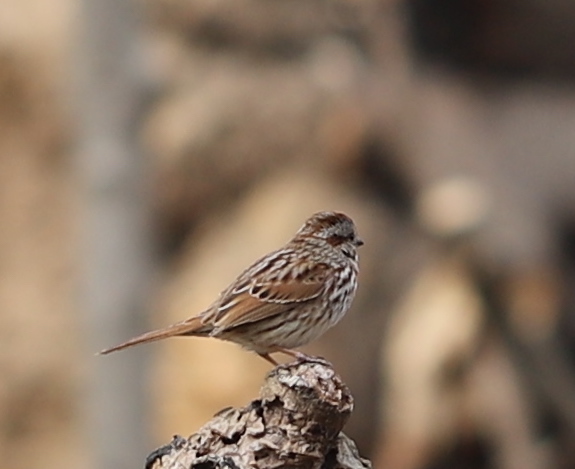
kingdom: Animalia
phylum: Chordata
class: Aves
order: Passeriformes
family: Passerellidae
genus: Melospiza
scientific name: Melospiza melodia
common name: Song sparrow
